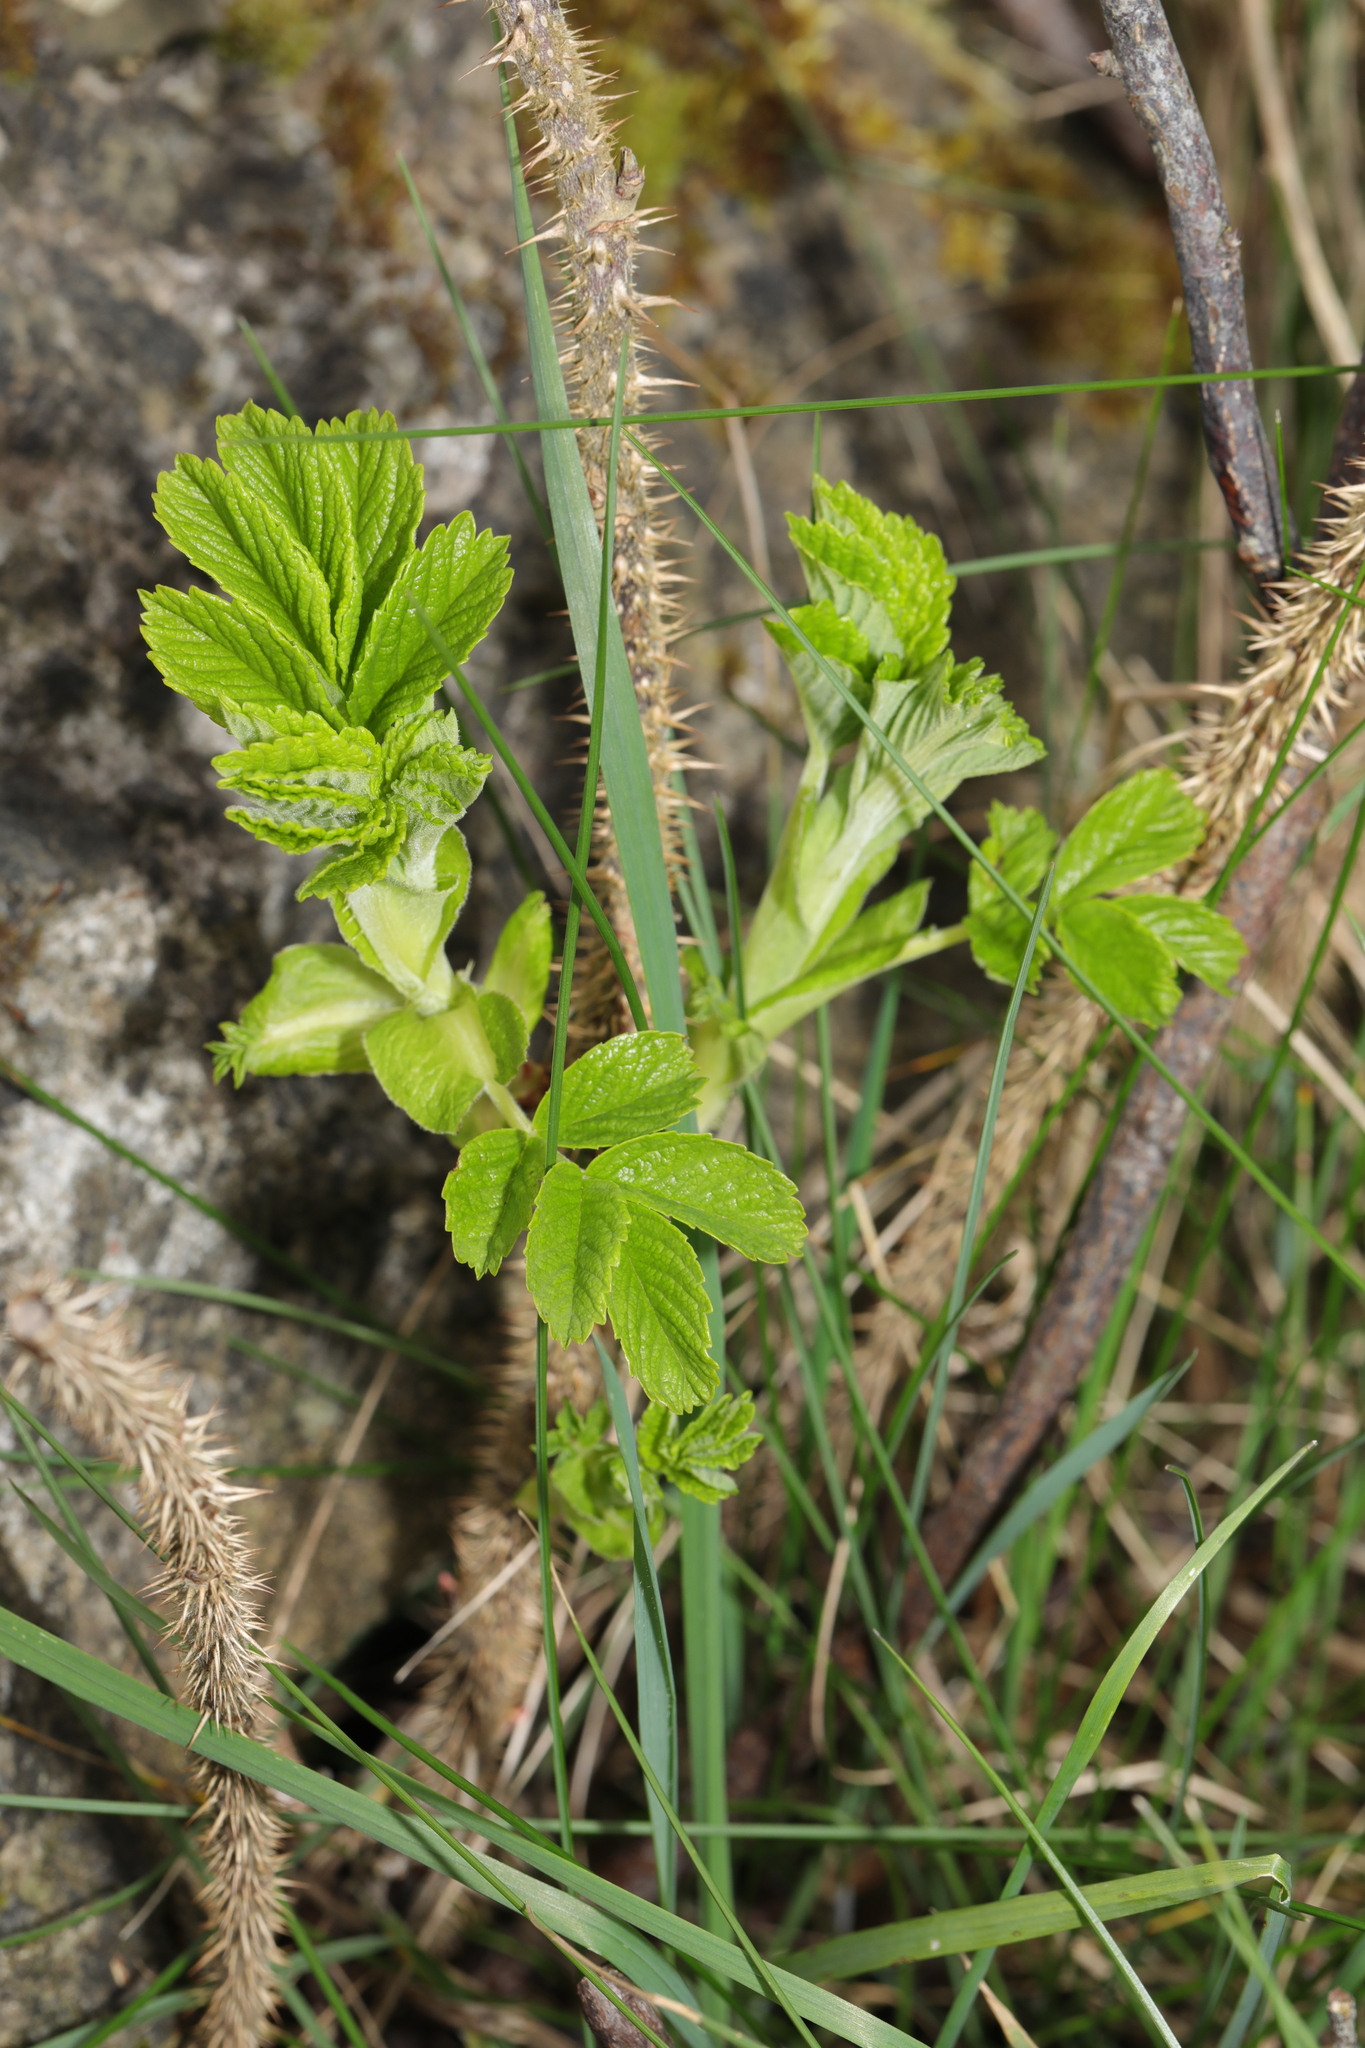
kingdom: Plantae
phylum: Tracheophyta
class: Magnoliopsida
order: Rosales
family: Rosaceae
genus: Rosa
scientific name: Rosa rugosa
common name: Japanese rose
